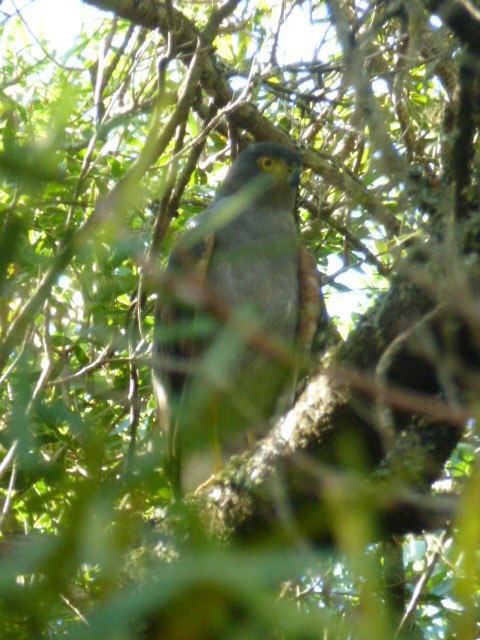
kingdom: Animalia
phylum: Chordata
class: Aves
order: Accipitriformes
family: Accipitridae
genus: Accipiter
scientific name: Accipiter bicolor
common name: Bicolored hawk
